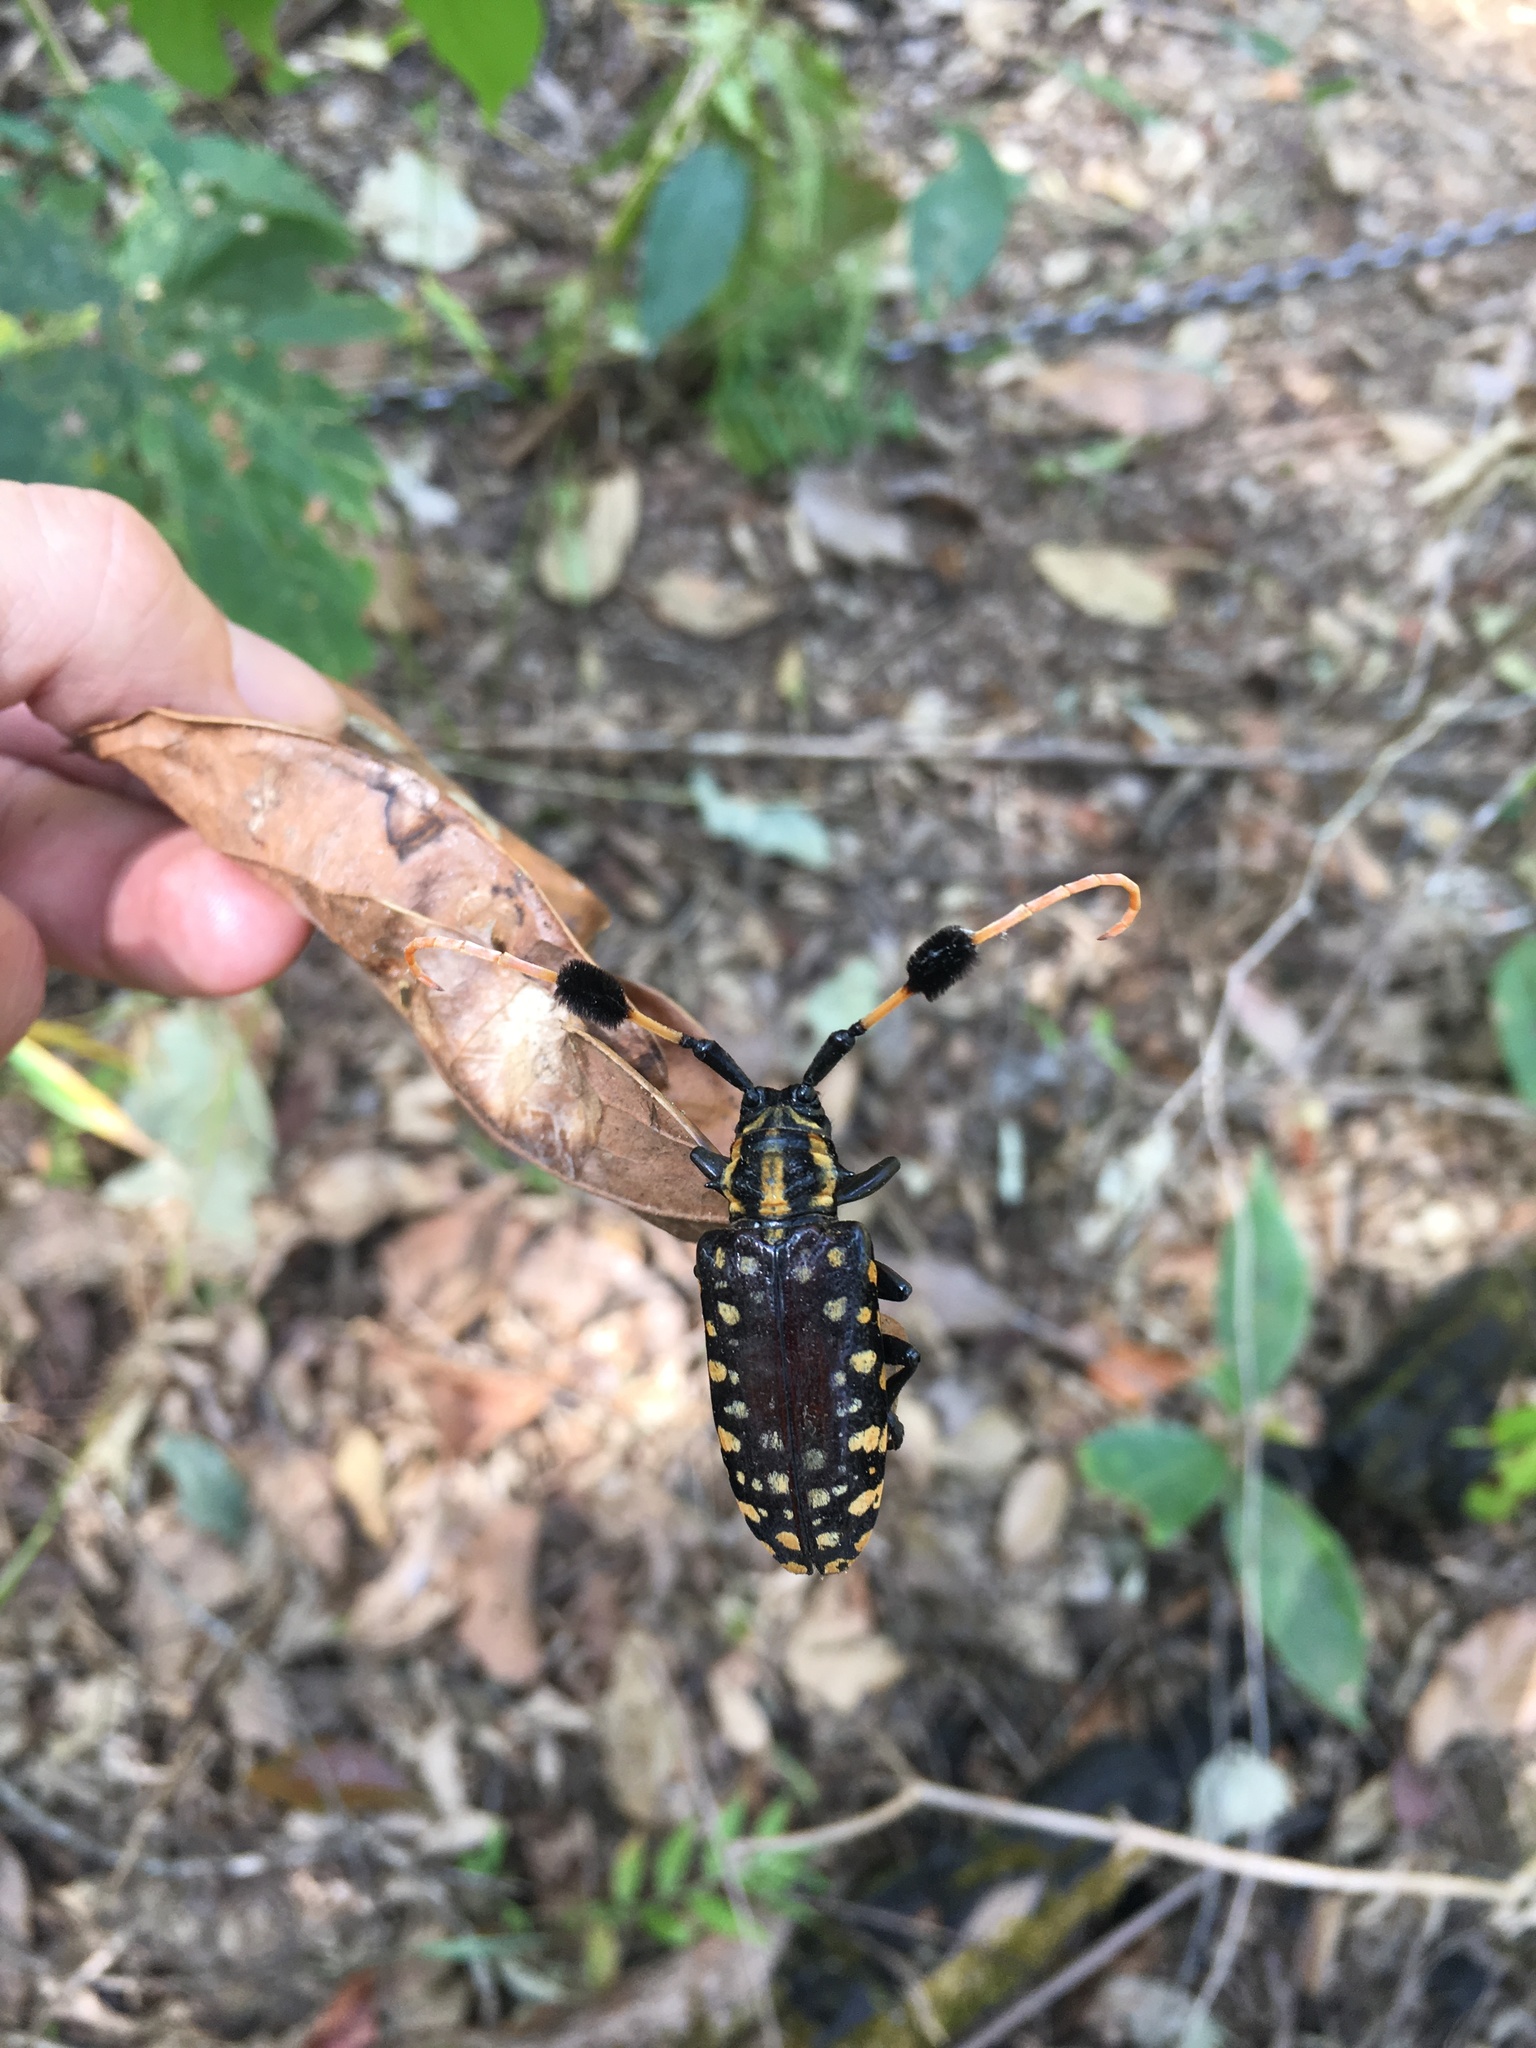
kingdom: Animalia
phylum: Arthropoda
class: Insecta
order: Coleoptera
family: Cerambycidae
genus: Aristobia
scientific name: Aristobia approximator
